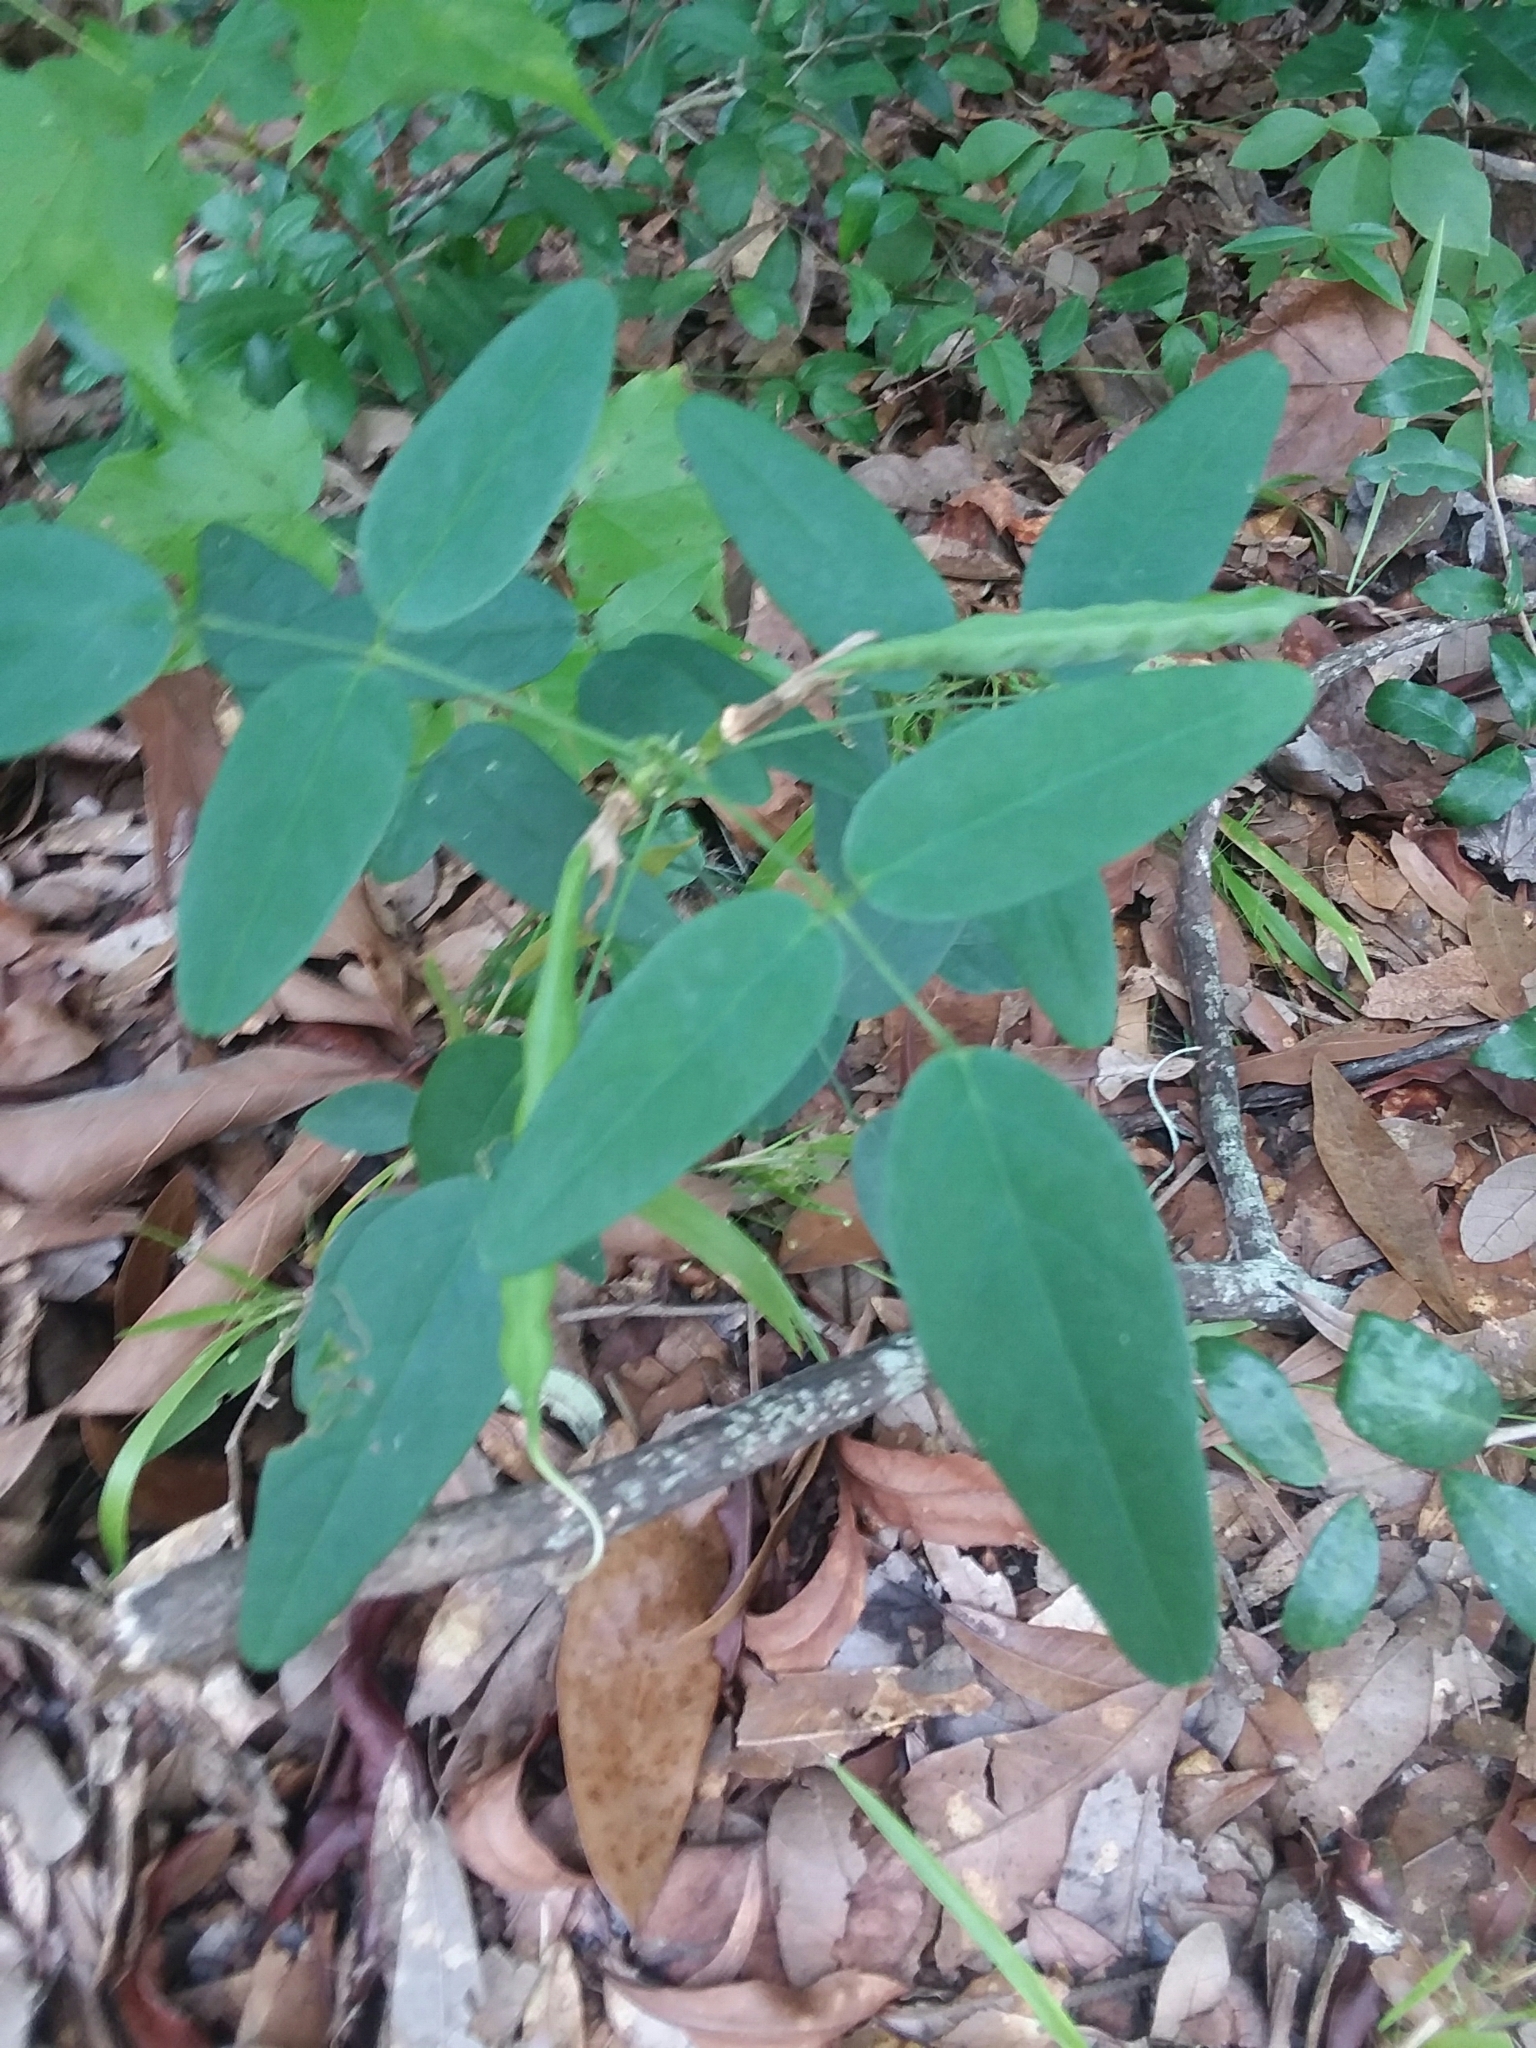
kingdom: Plantae
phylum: Tracheophyta
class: Magnoliopsida
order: Fabales
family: Fabaceae
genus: Clitoria
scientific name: Clitoria mariana
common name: Butterfly-pea
